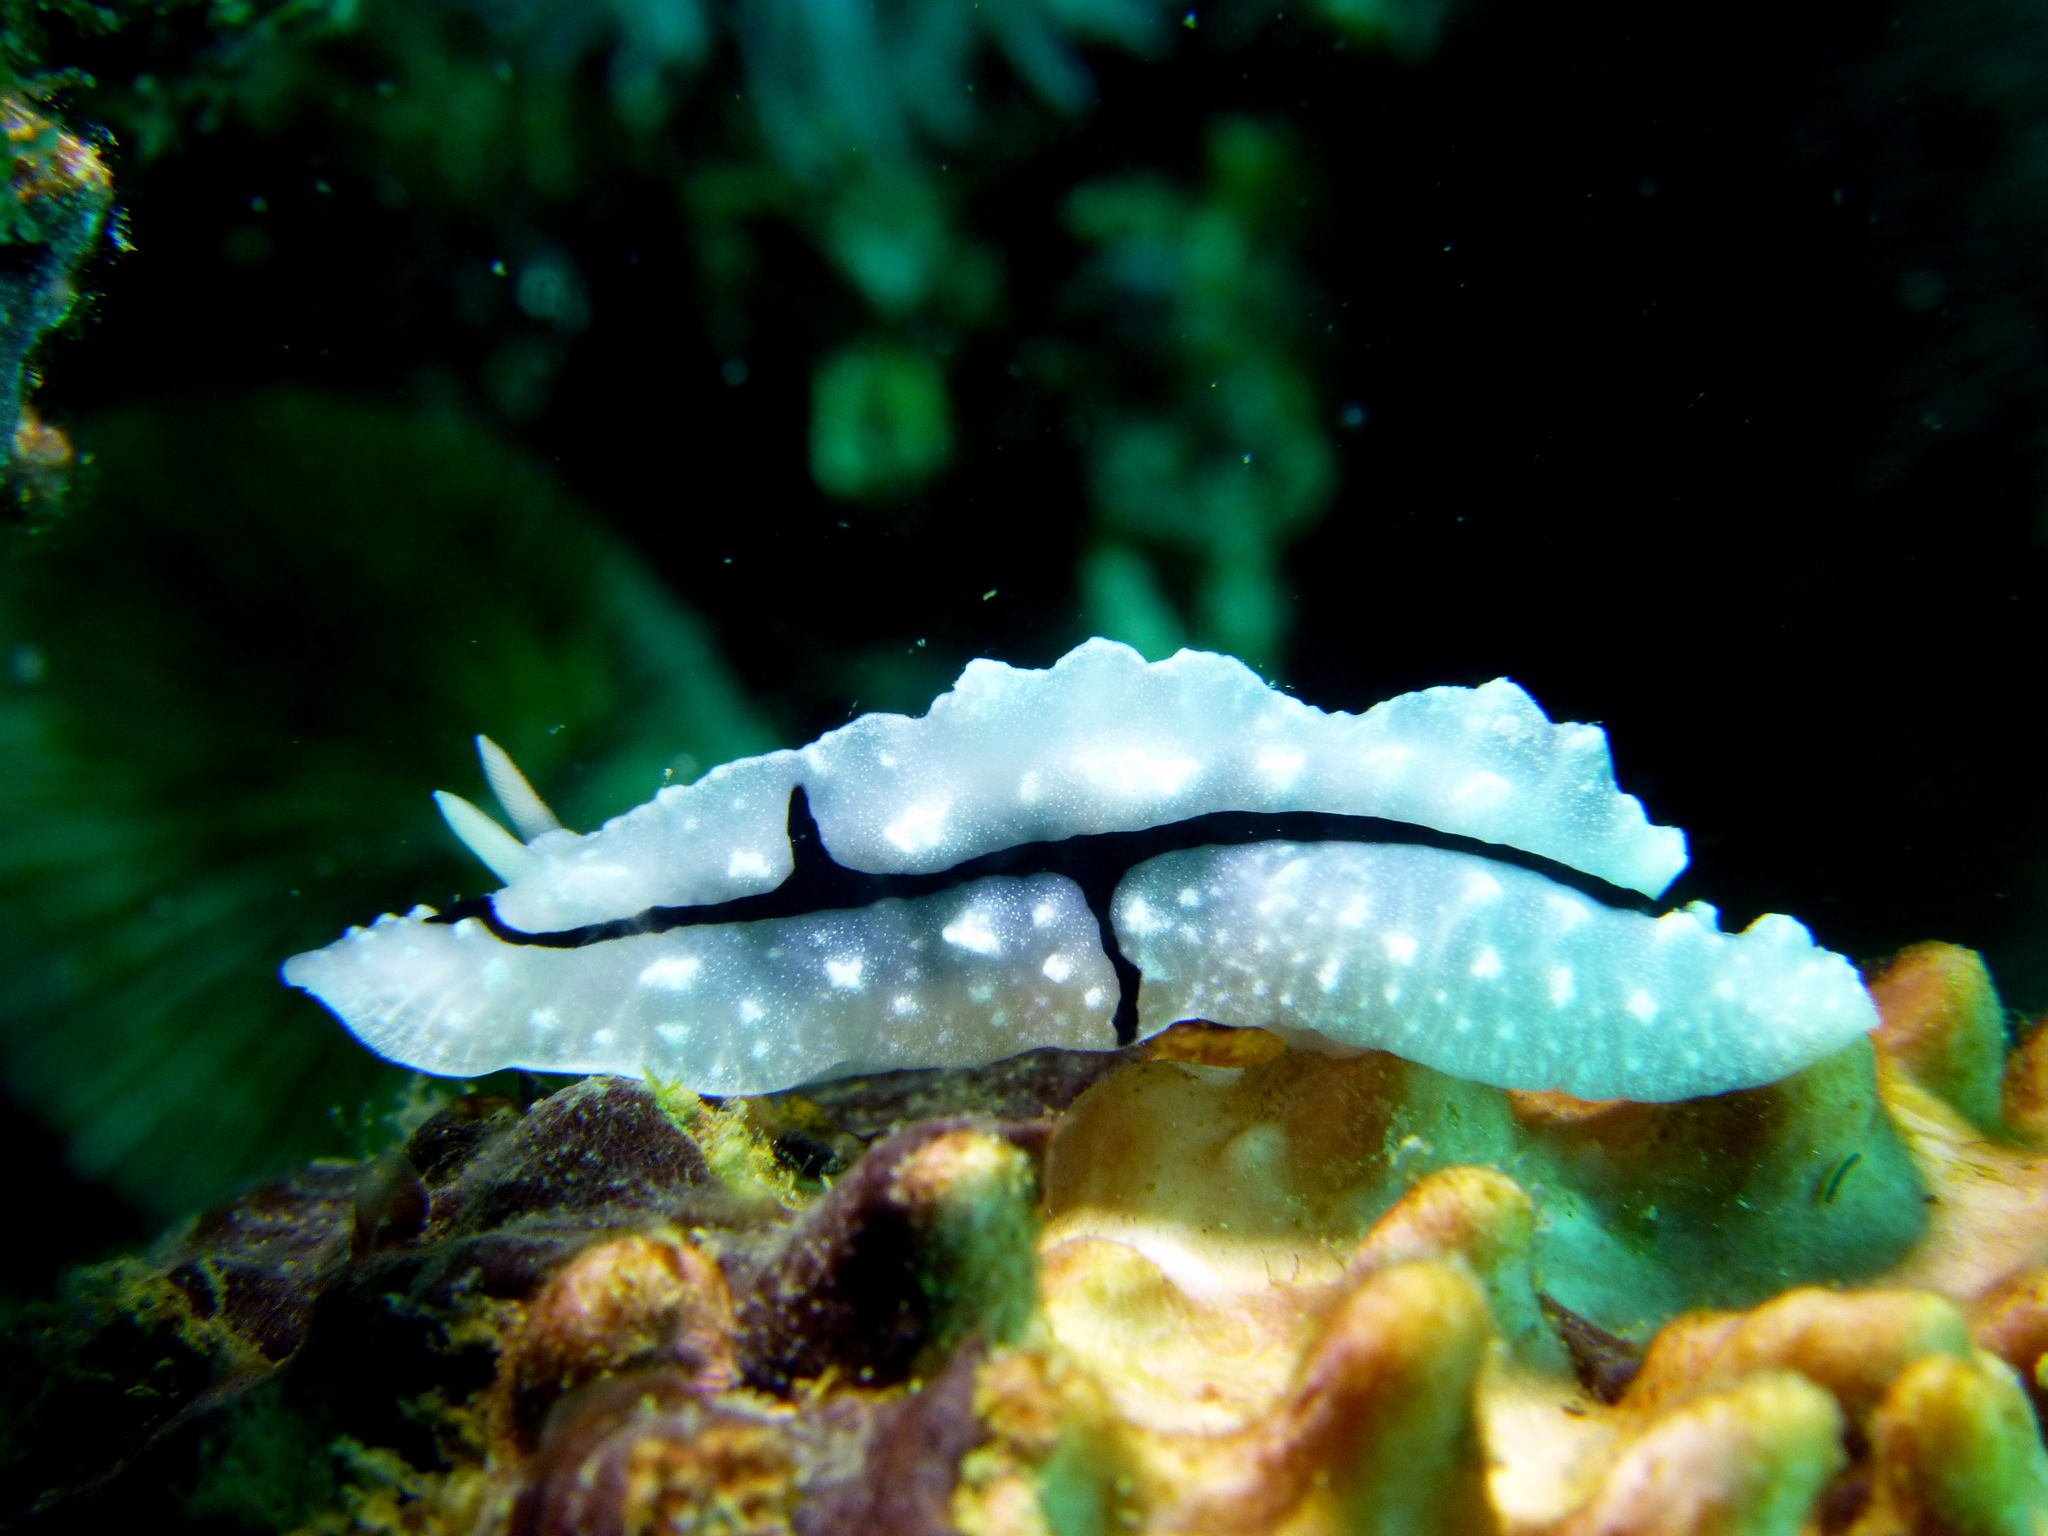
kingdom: Animalia
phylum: Mollusca
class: Gastropoda
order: Nudibranchia
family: Phyllidiidae
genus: Phyllidiopsis
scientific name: Phyllidiopsis shireenae
